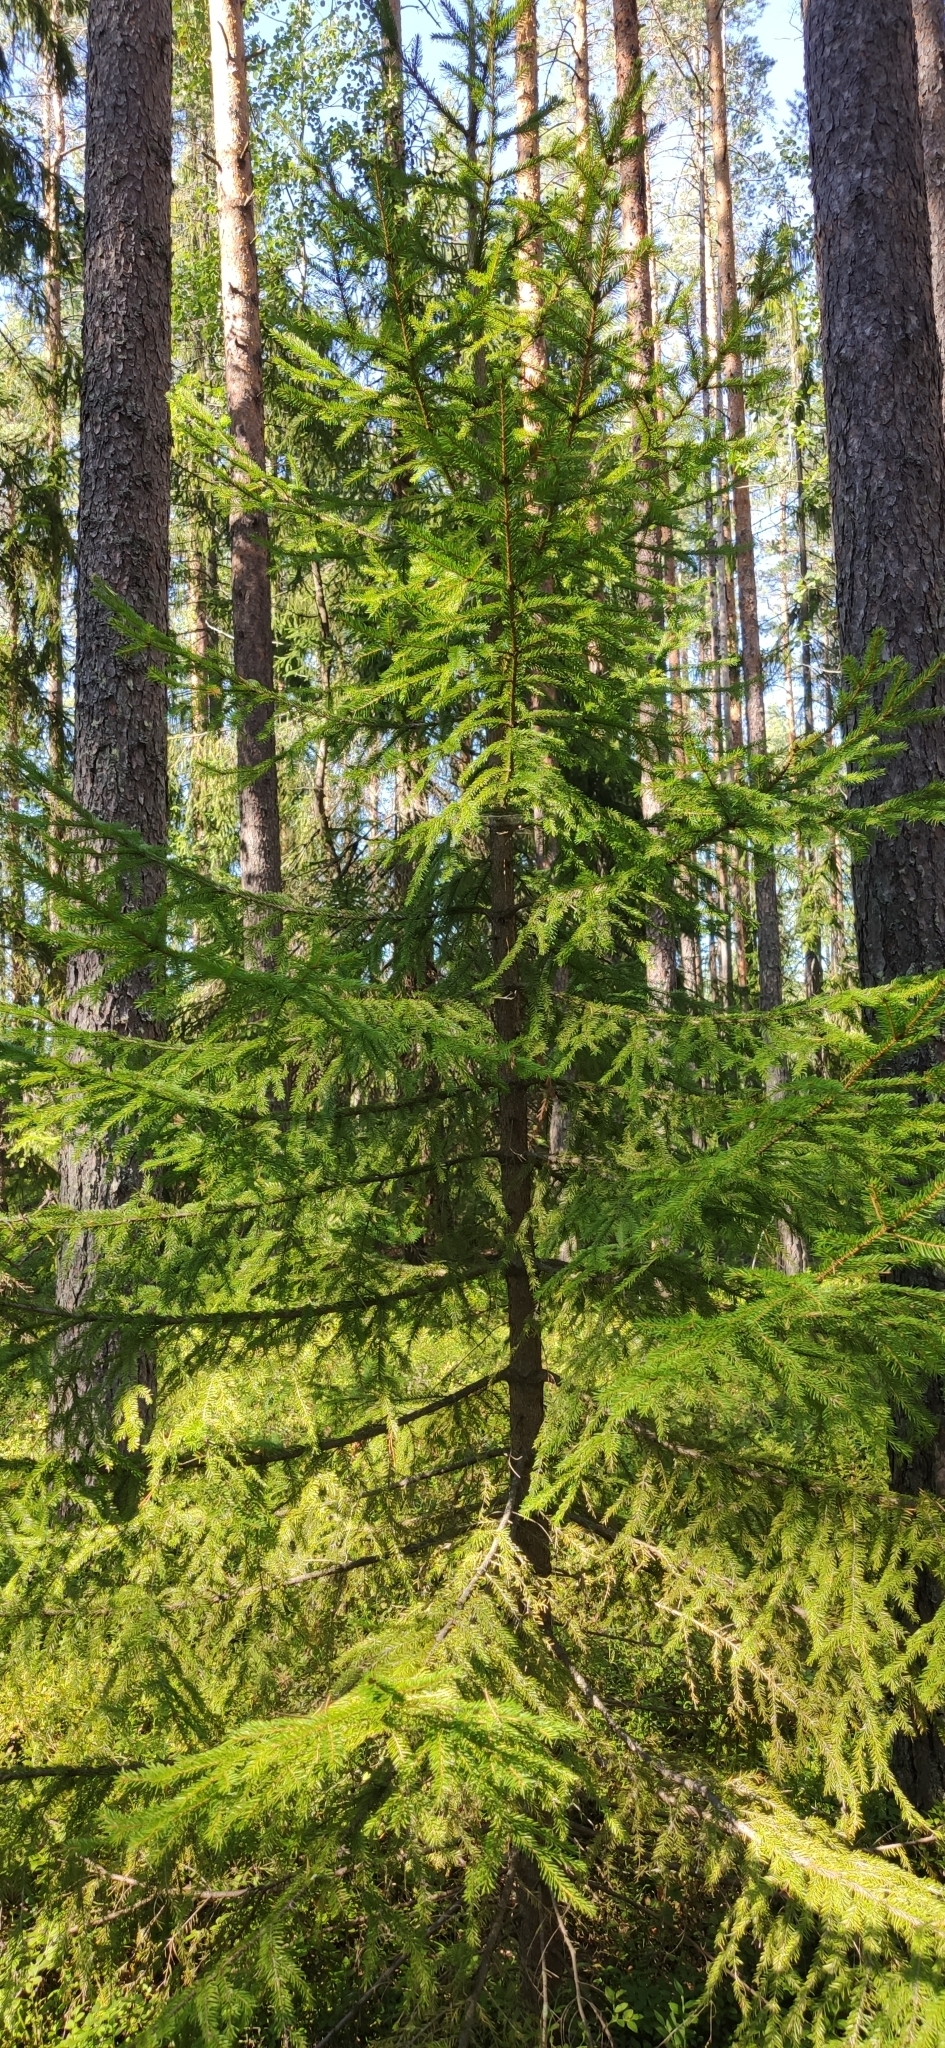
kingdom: Plantae
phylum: Tracheophyta
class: Pinopsida
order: Pinales
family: Pinaceae
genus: Picea
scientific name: Picea
